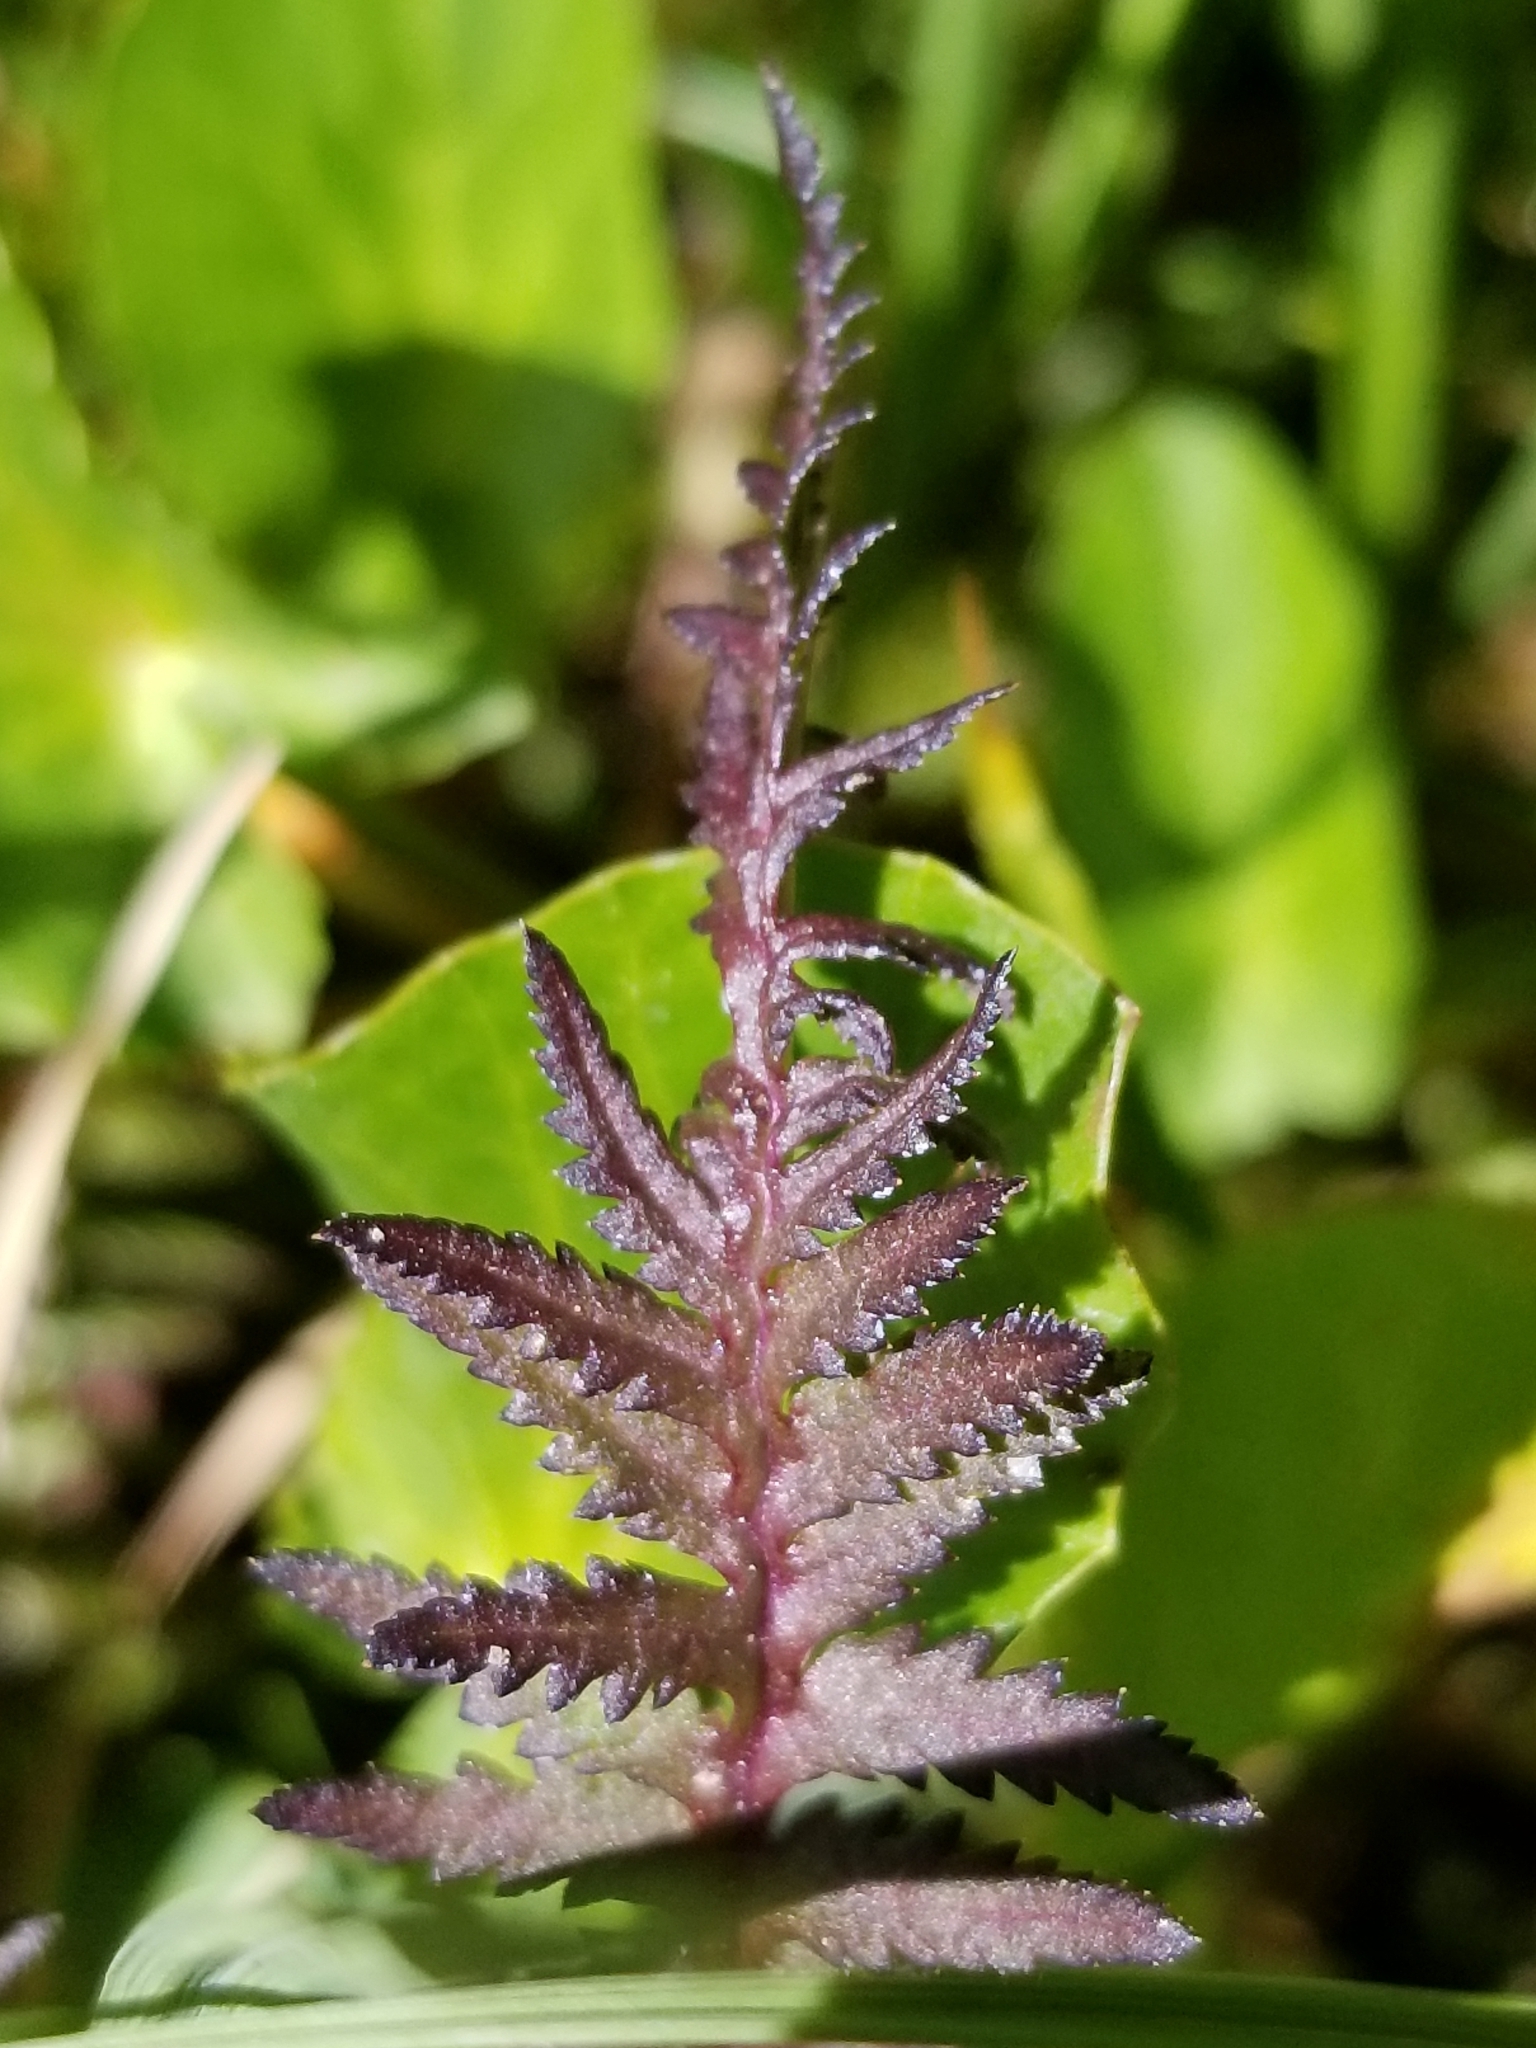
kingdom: Plantae
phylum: Tracheophyta
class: Magnoliopsida
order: Lamiales
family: Orobanchaceae
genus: Pedicularis
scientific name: Pedicularis groenlandica
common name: Elephant's-head
